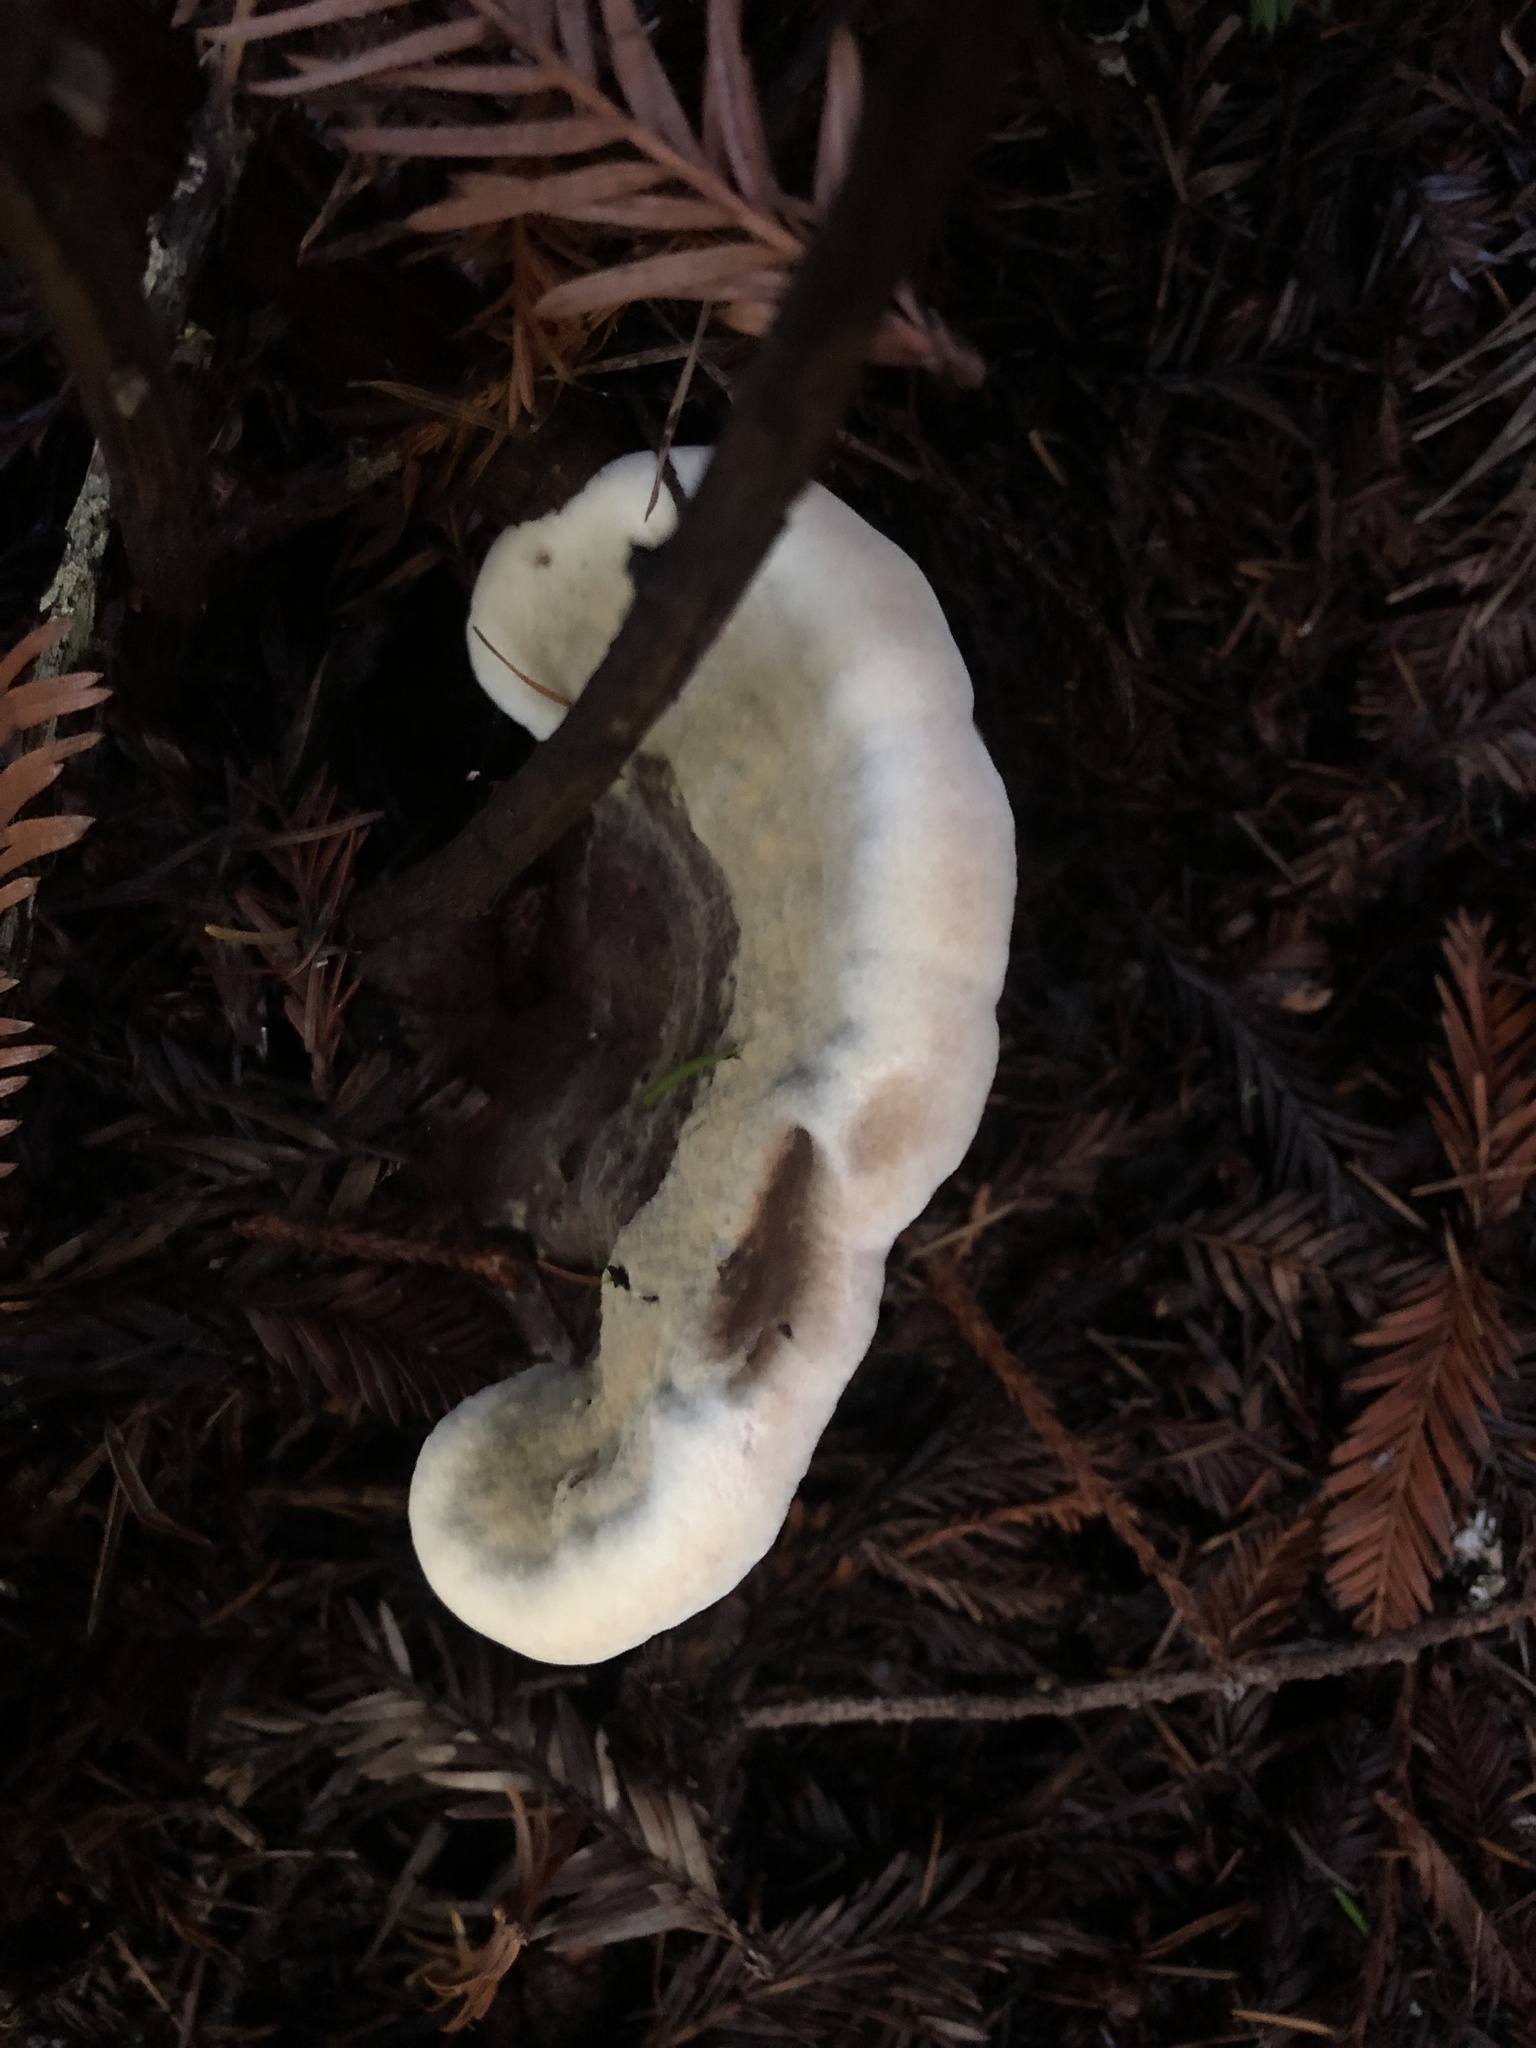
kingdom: Fungi
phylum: Basidiomycota
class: Agaricomycetes
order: Polyporales
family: Laetiporaceae
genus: Phaeolus
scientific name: Phaeolus schweinitzii
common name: Dyer's mazegill
